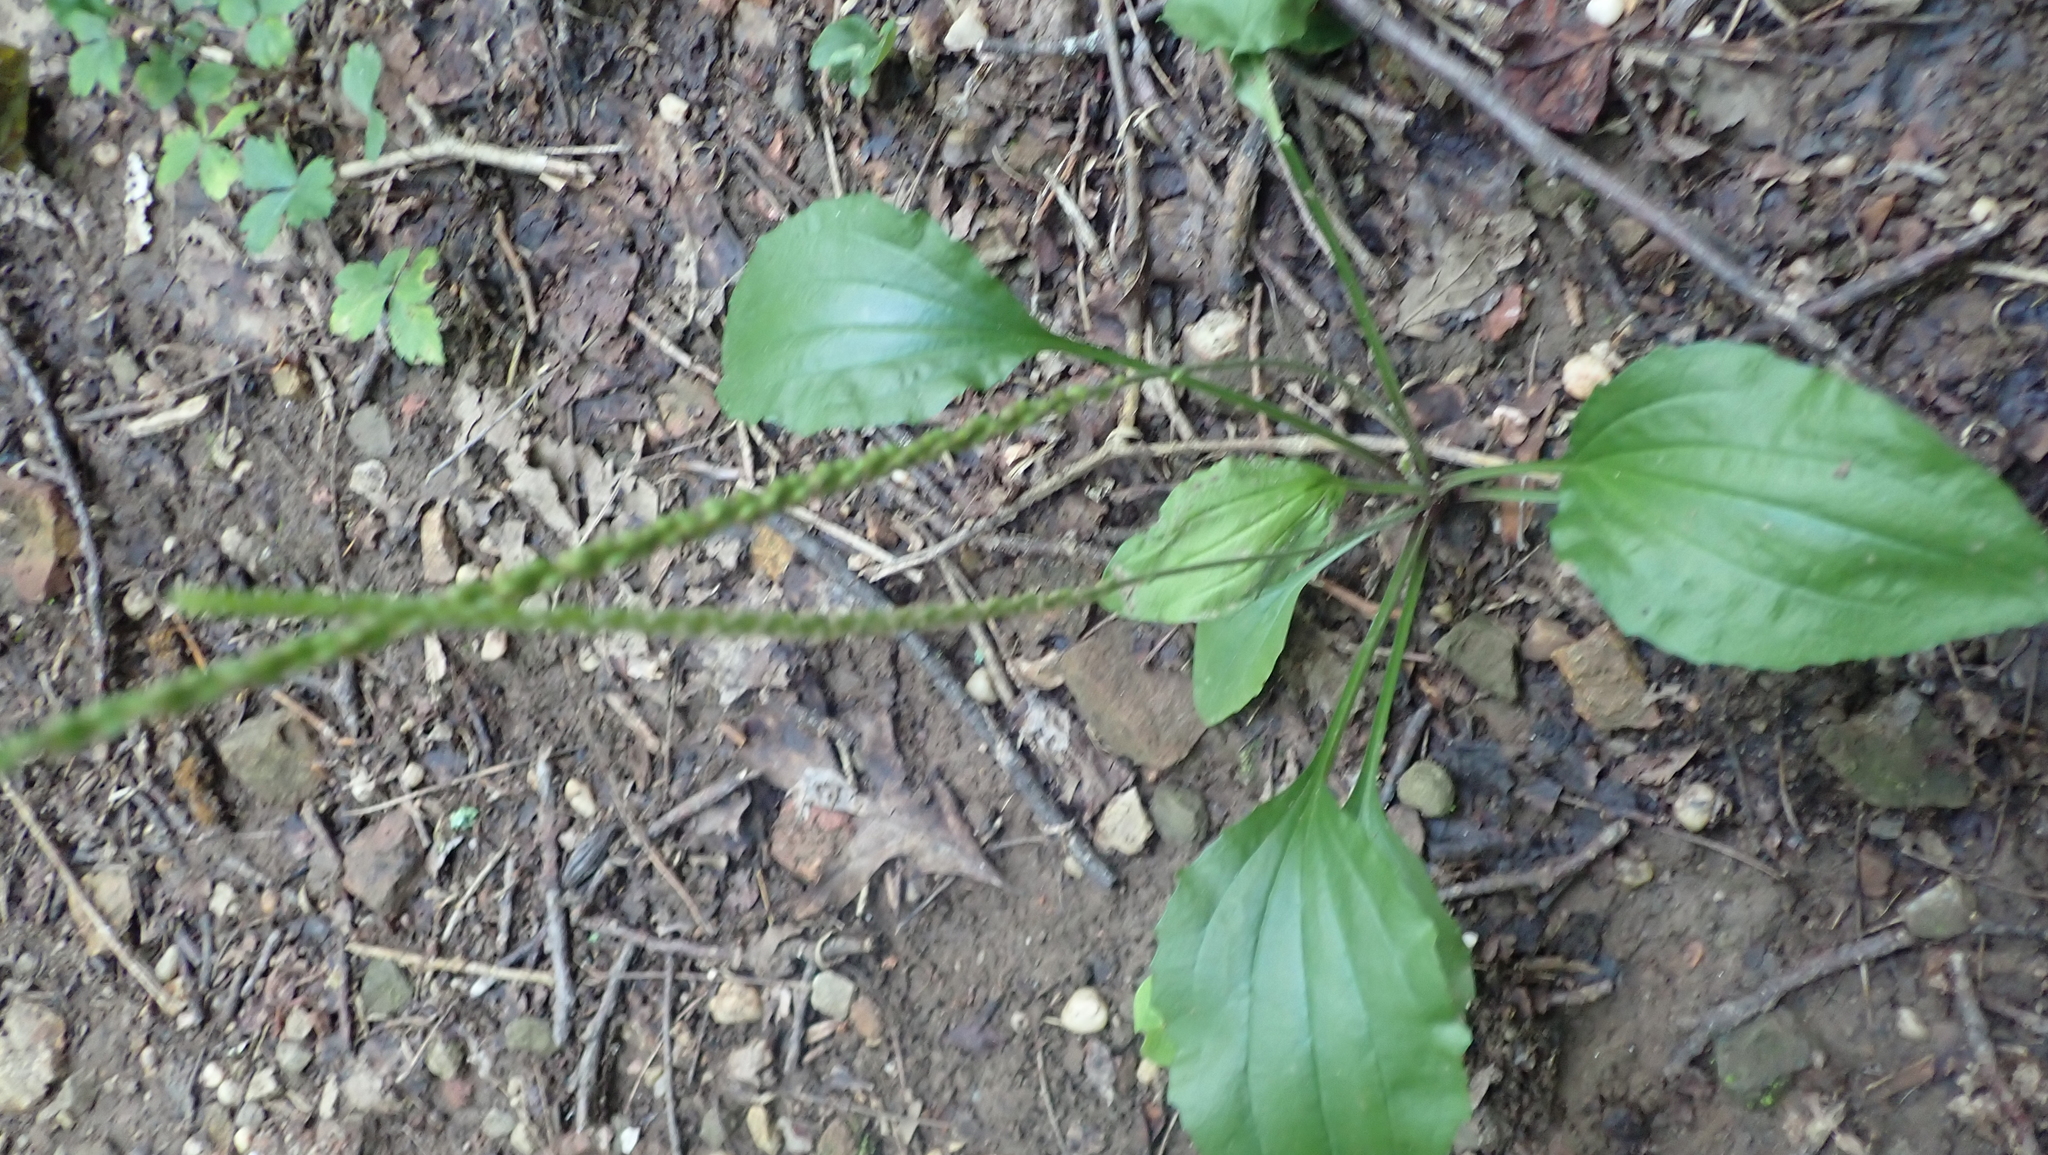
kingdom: Plantae
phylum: Tracheophyta
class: Magnoliopsida
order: Lamiales
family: Plantaginaceae
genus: Plantago
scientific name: Plantago rugelii
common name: American plantain
